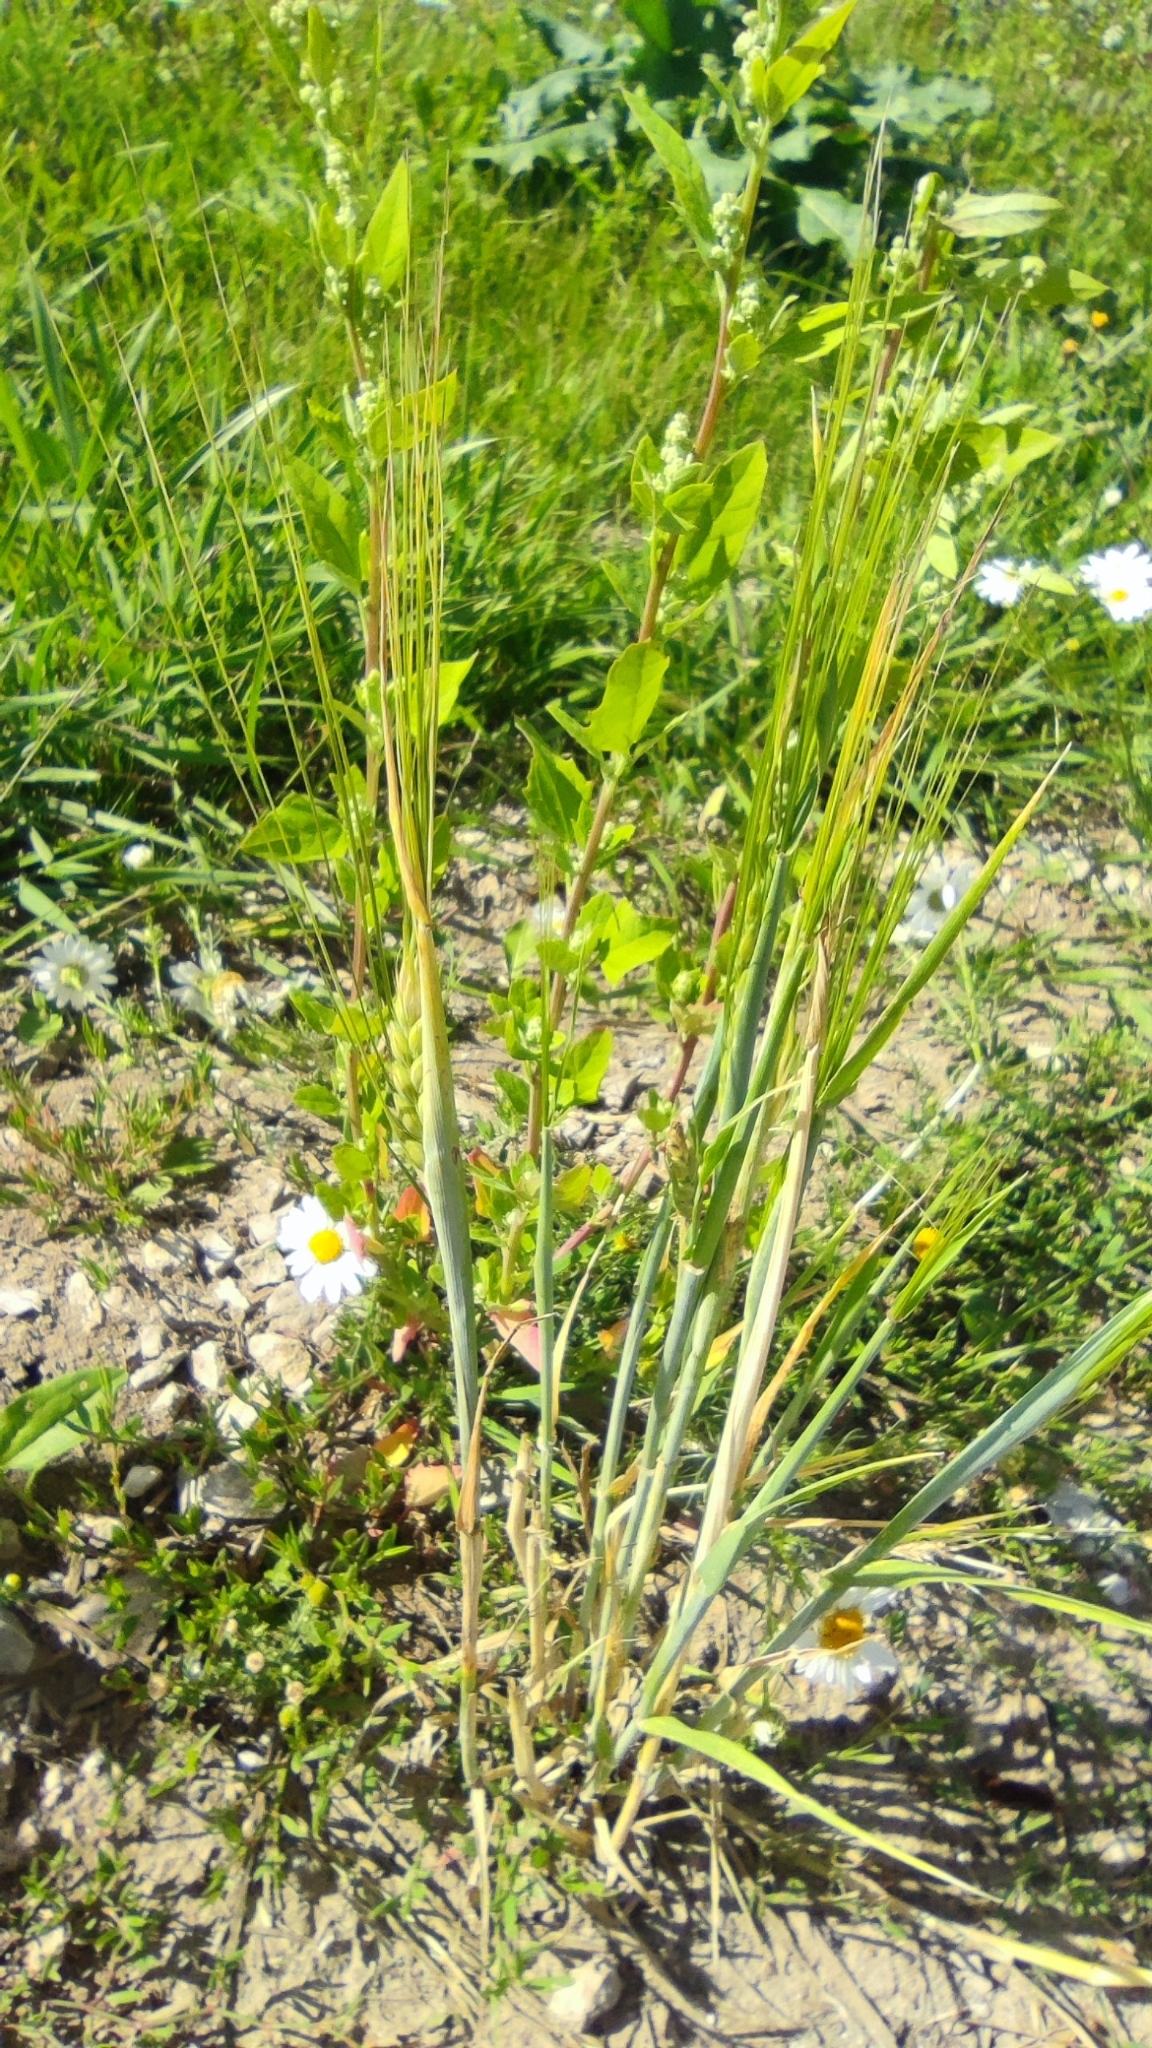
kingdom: Plantae
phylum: Tracheophyta
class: Liliopsida
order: Poales
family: Poaceae
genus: Hordeum
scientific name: Hordeum vulgare
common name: Common barley
